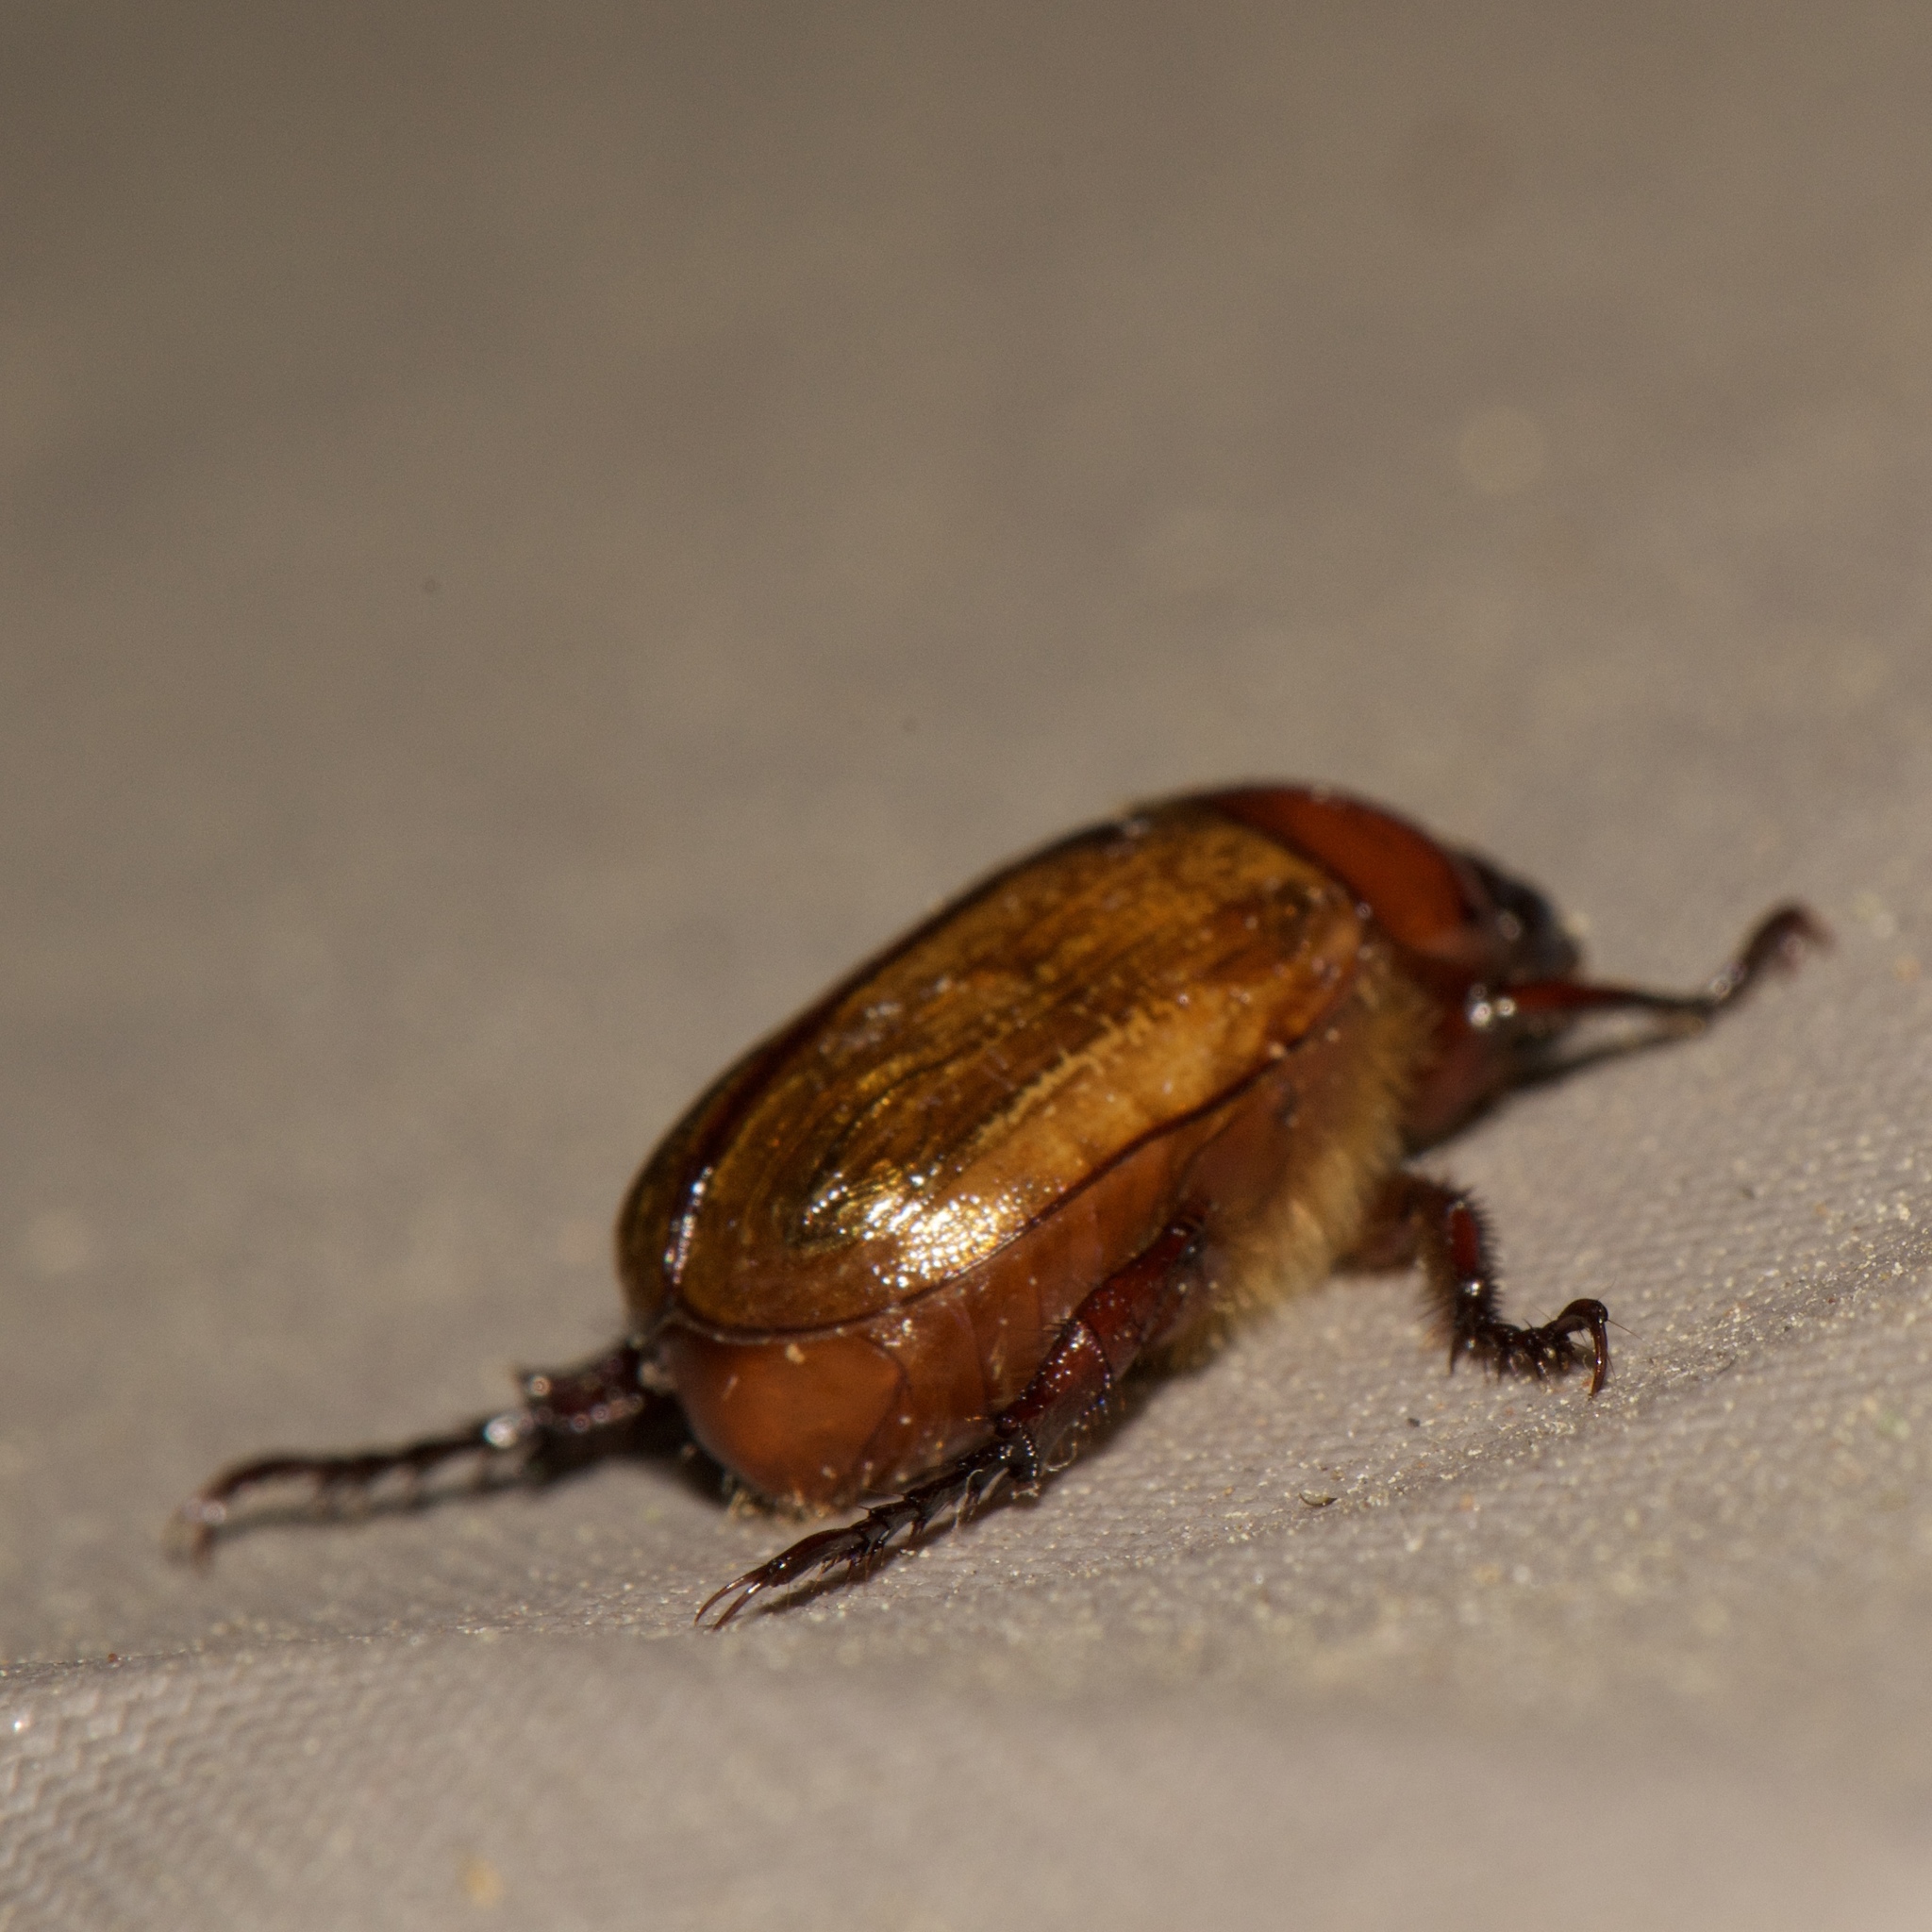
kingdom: Animalia
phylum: Arthropoda
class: Insecta
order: Coleoptera
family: Scarabaeidae
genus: Paranomala
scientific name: Paranomala flavipennis
